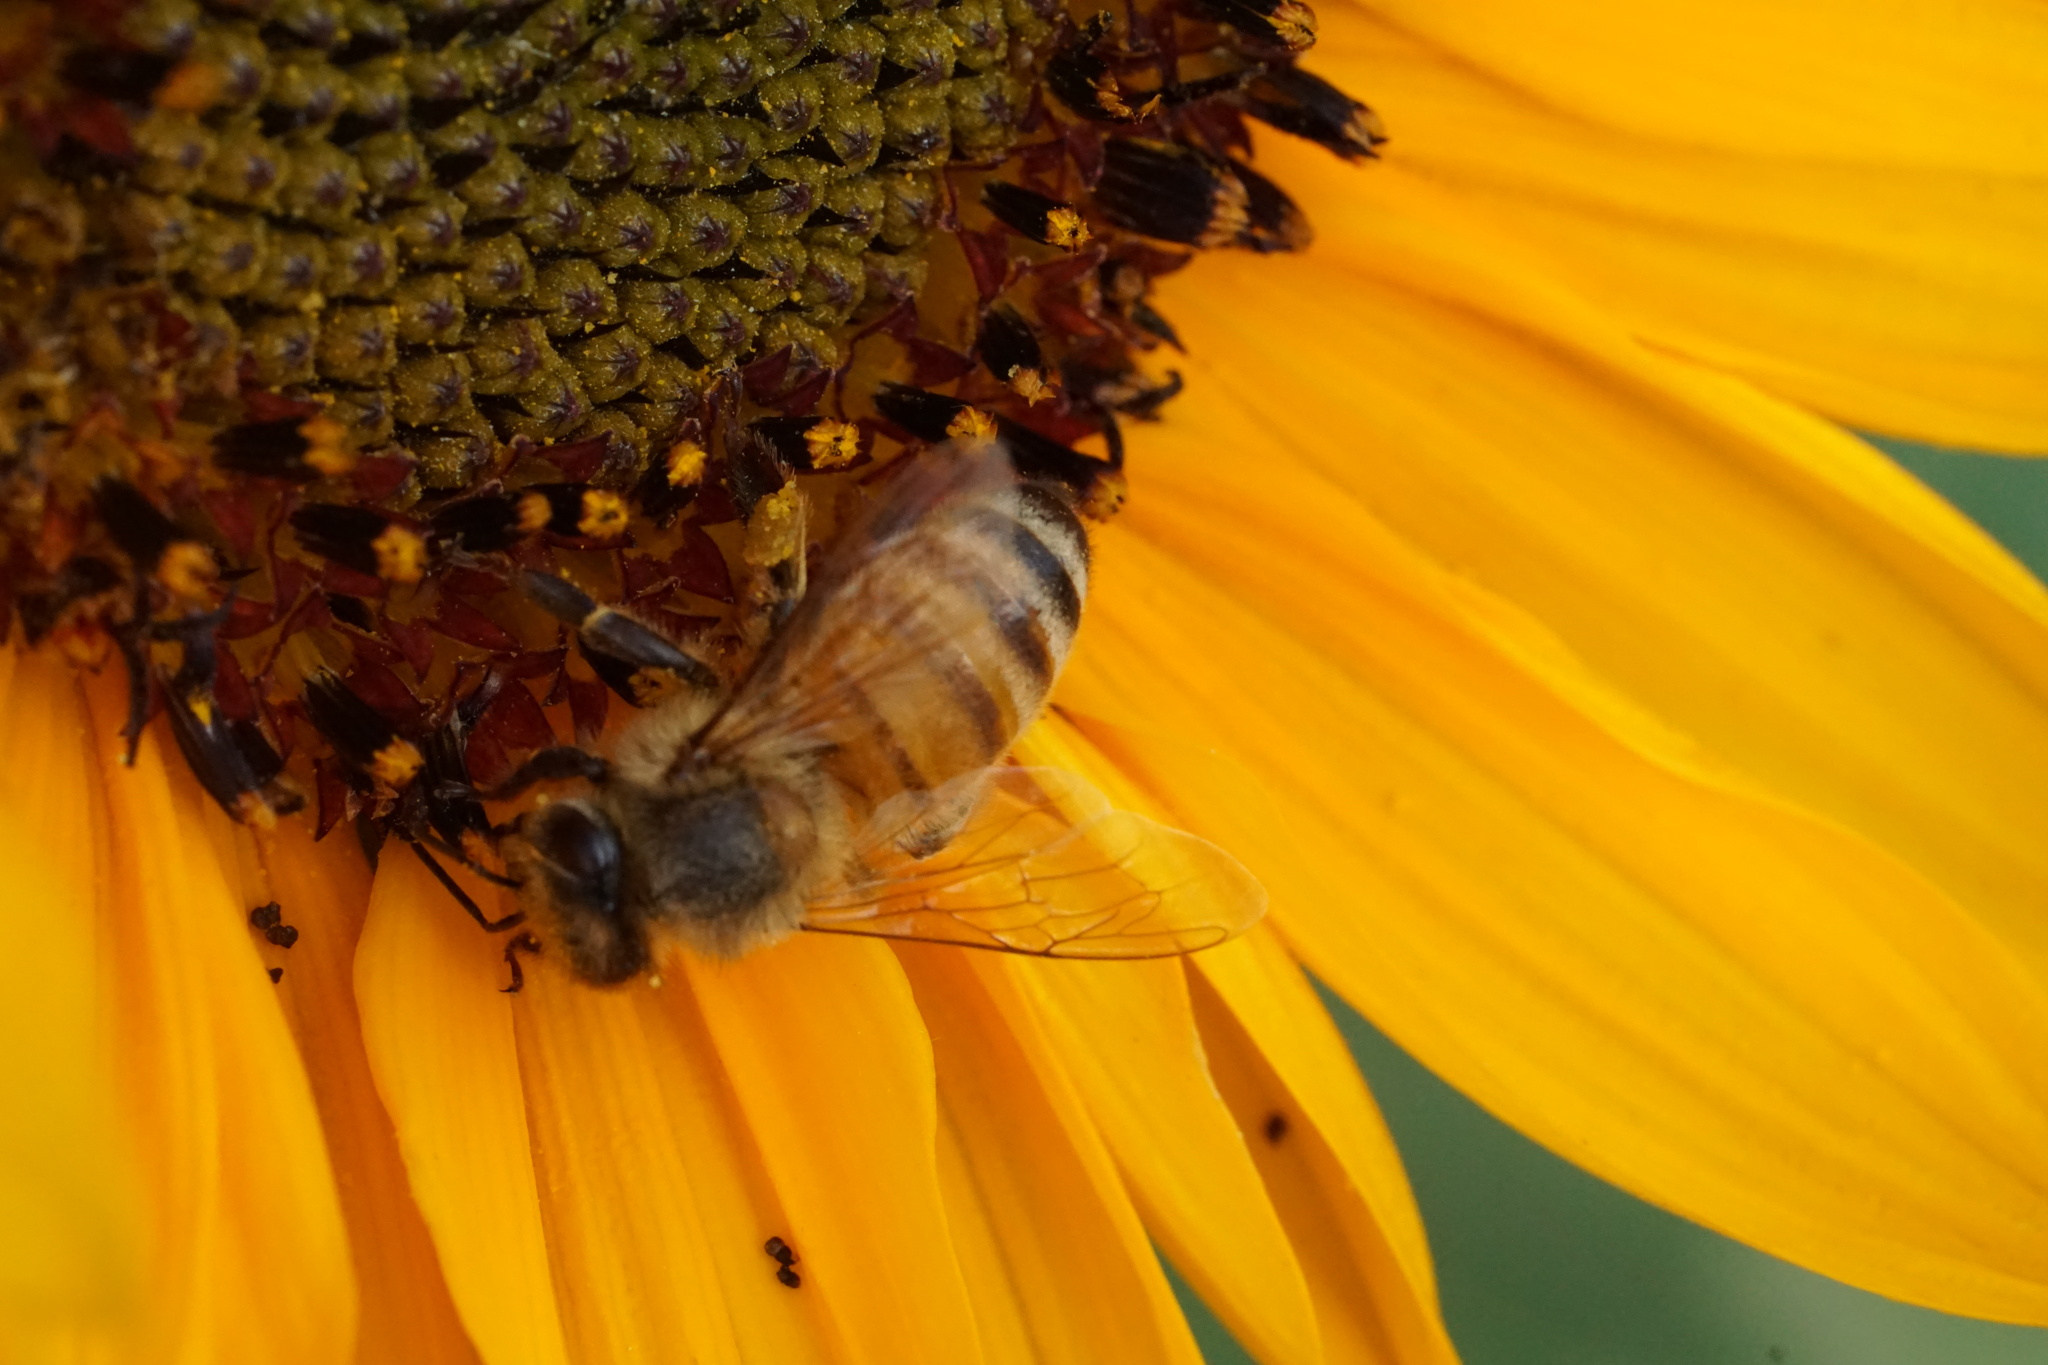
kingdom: Animalia
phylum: Arthropoda
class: Insecta
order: Hymenoptera
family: Apidae
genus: Apis
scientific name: Apis mellifera
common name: Honey bee
